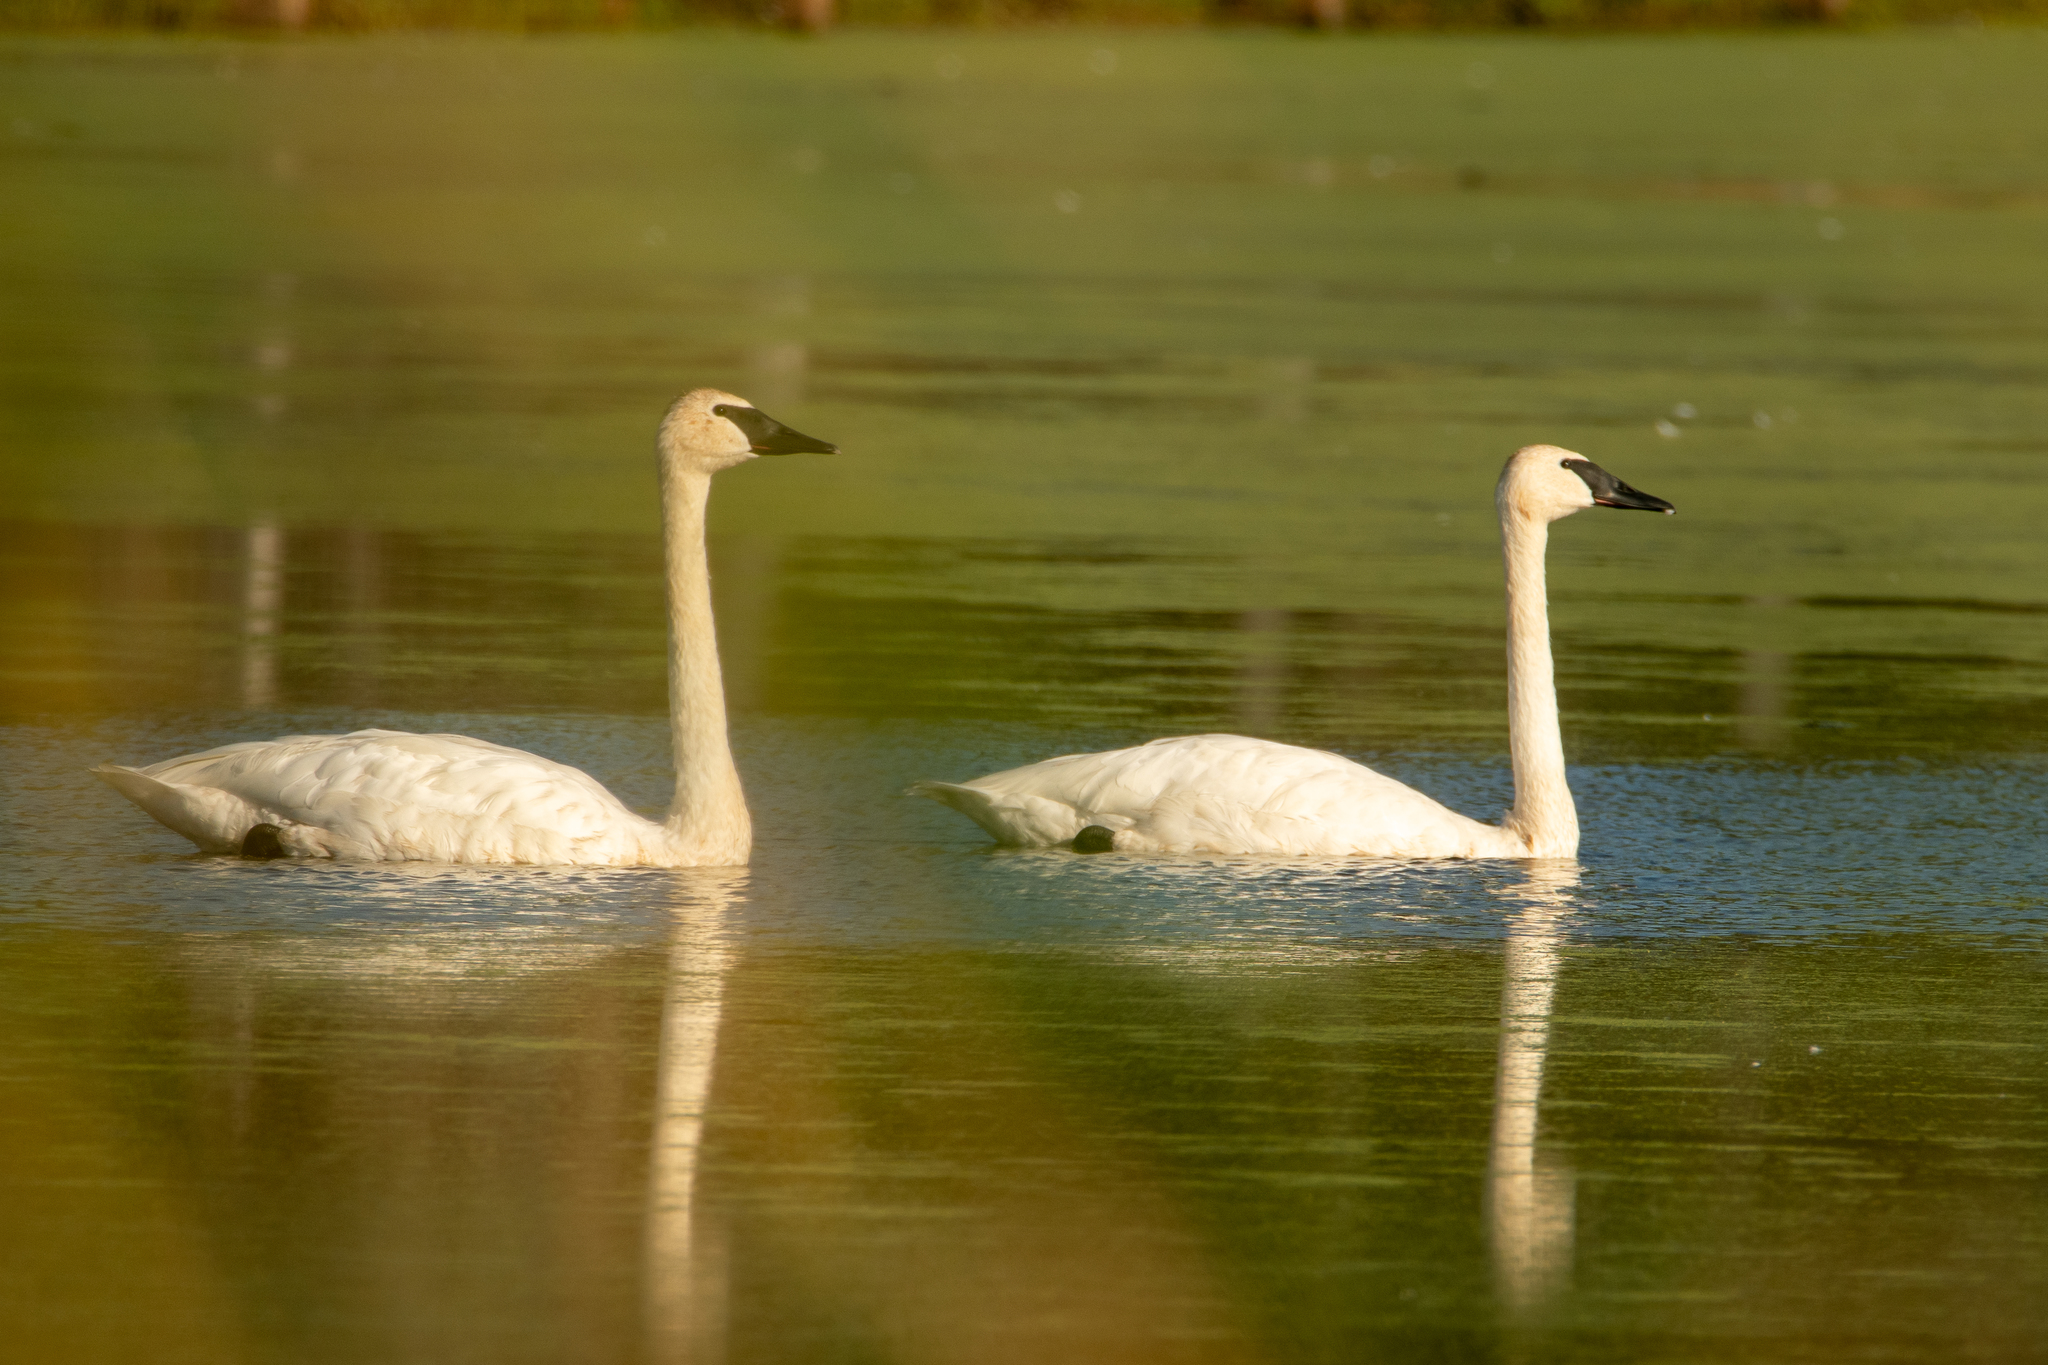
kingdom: Animalia
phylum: Chordata
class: Aves
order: Anseriformes
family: Anatidae
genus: Cygnus
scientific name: Cygnus buccinator
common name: Trumpeter swan
